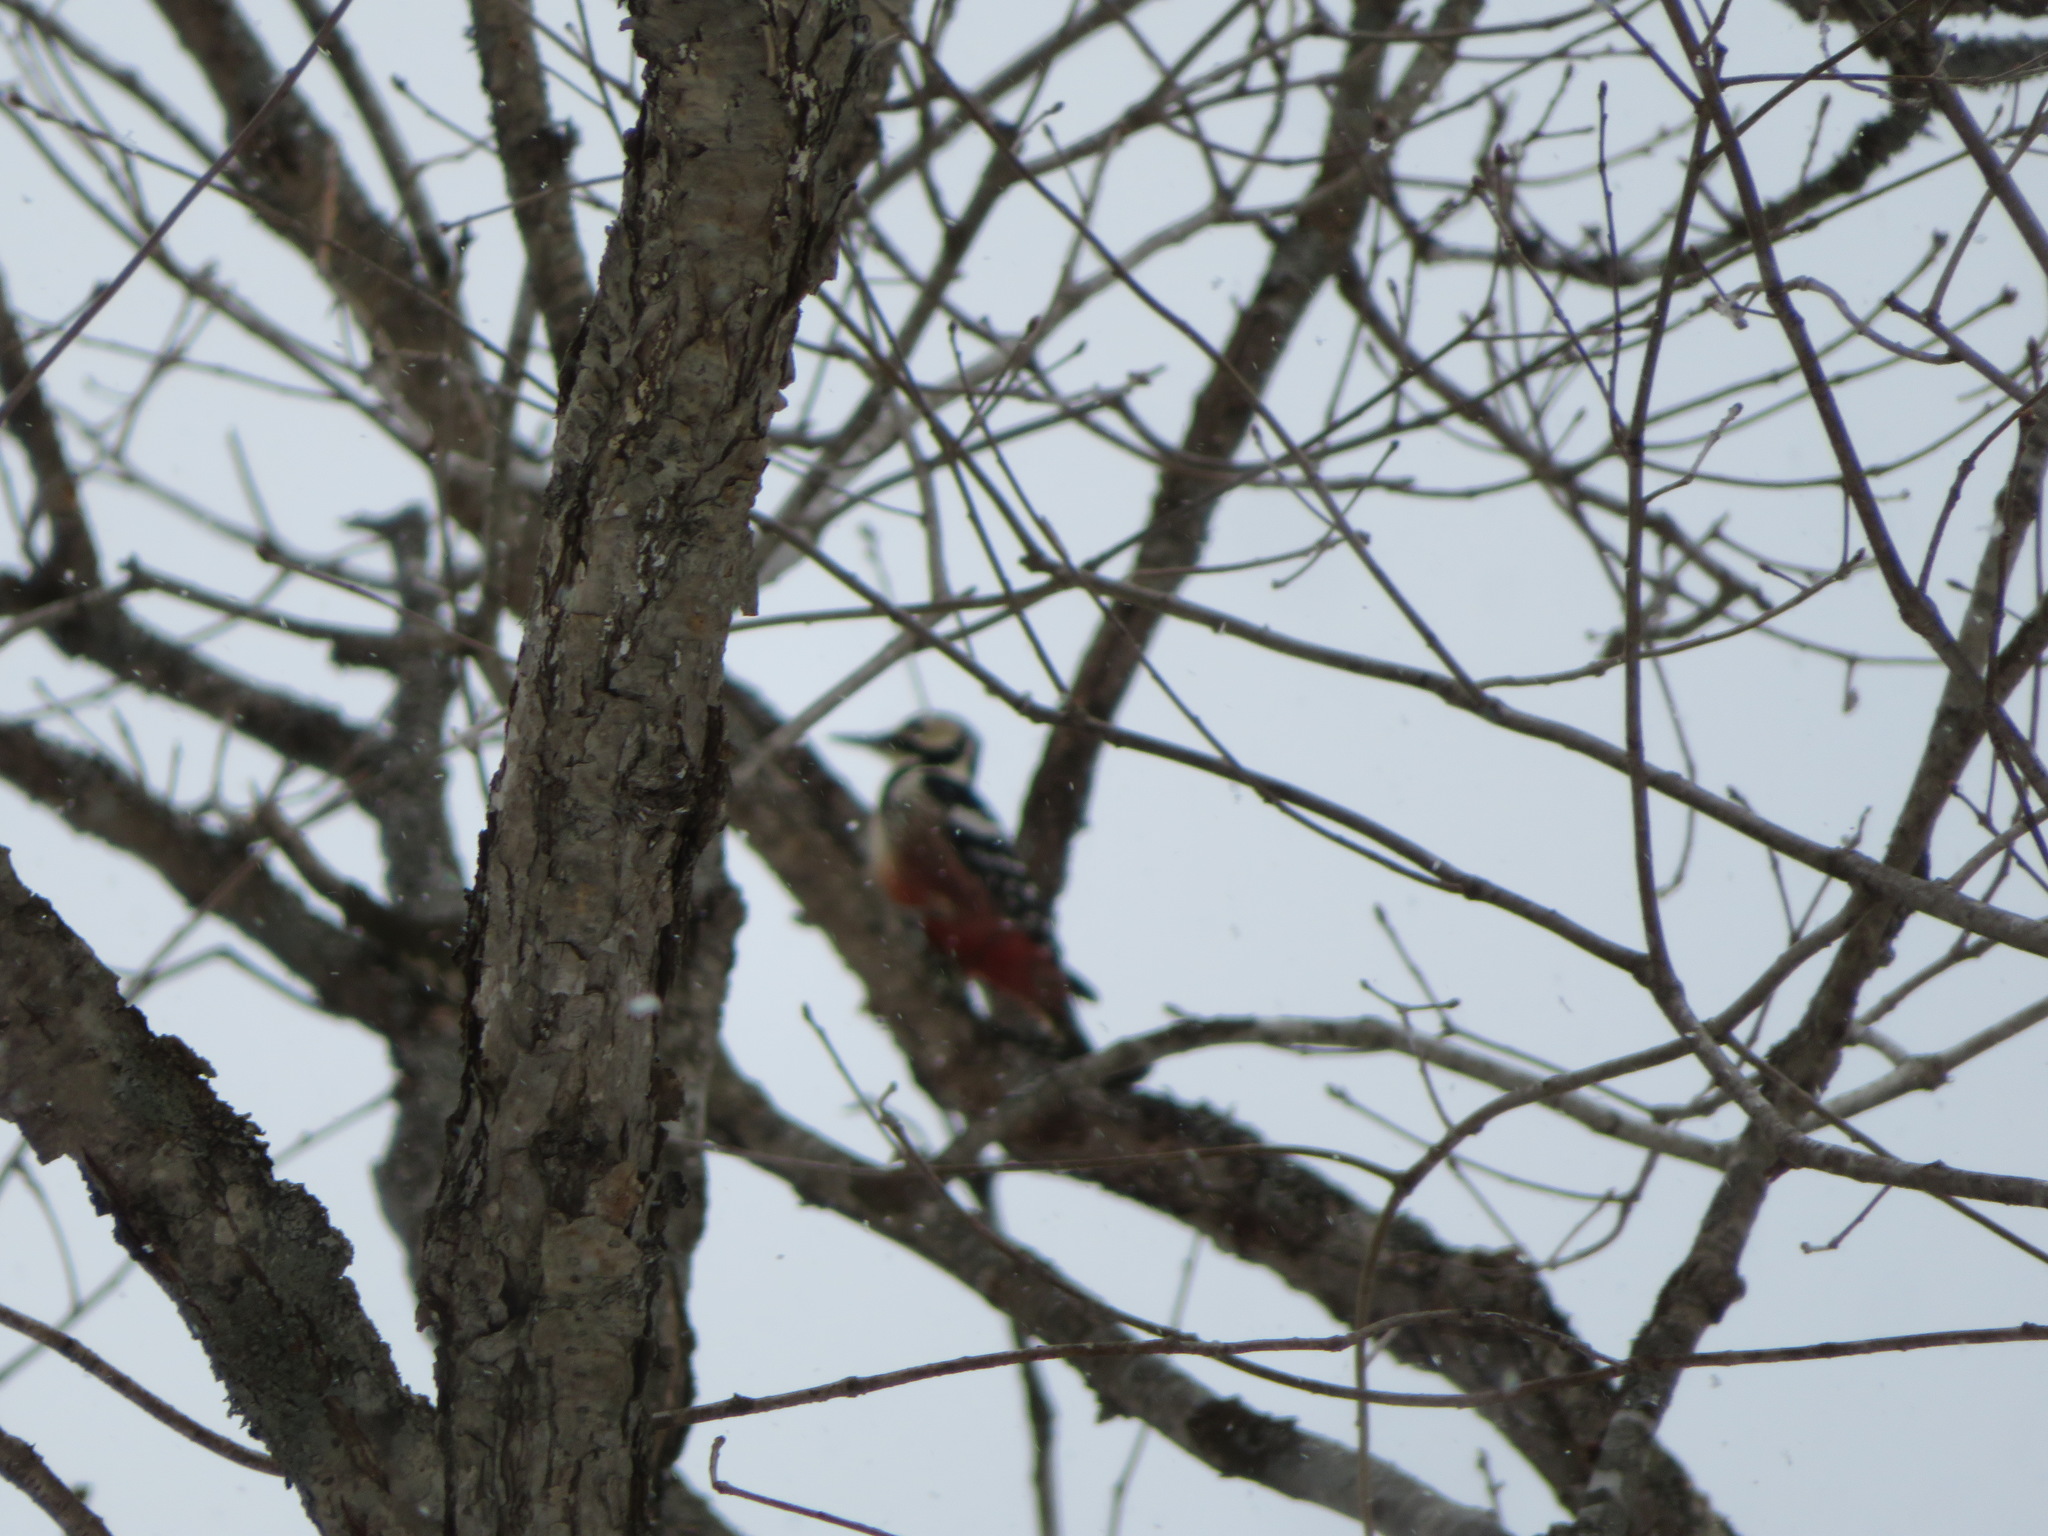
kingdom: Animalia
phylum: Chordata
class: Aves
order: Piciformes
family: Picidae
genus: Dendrocopos
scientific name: Dendrocopos major
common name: Great spotted woodpecker
